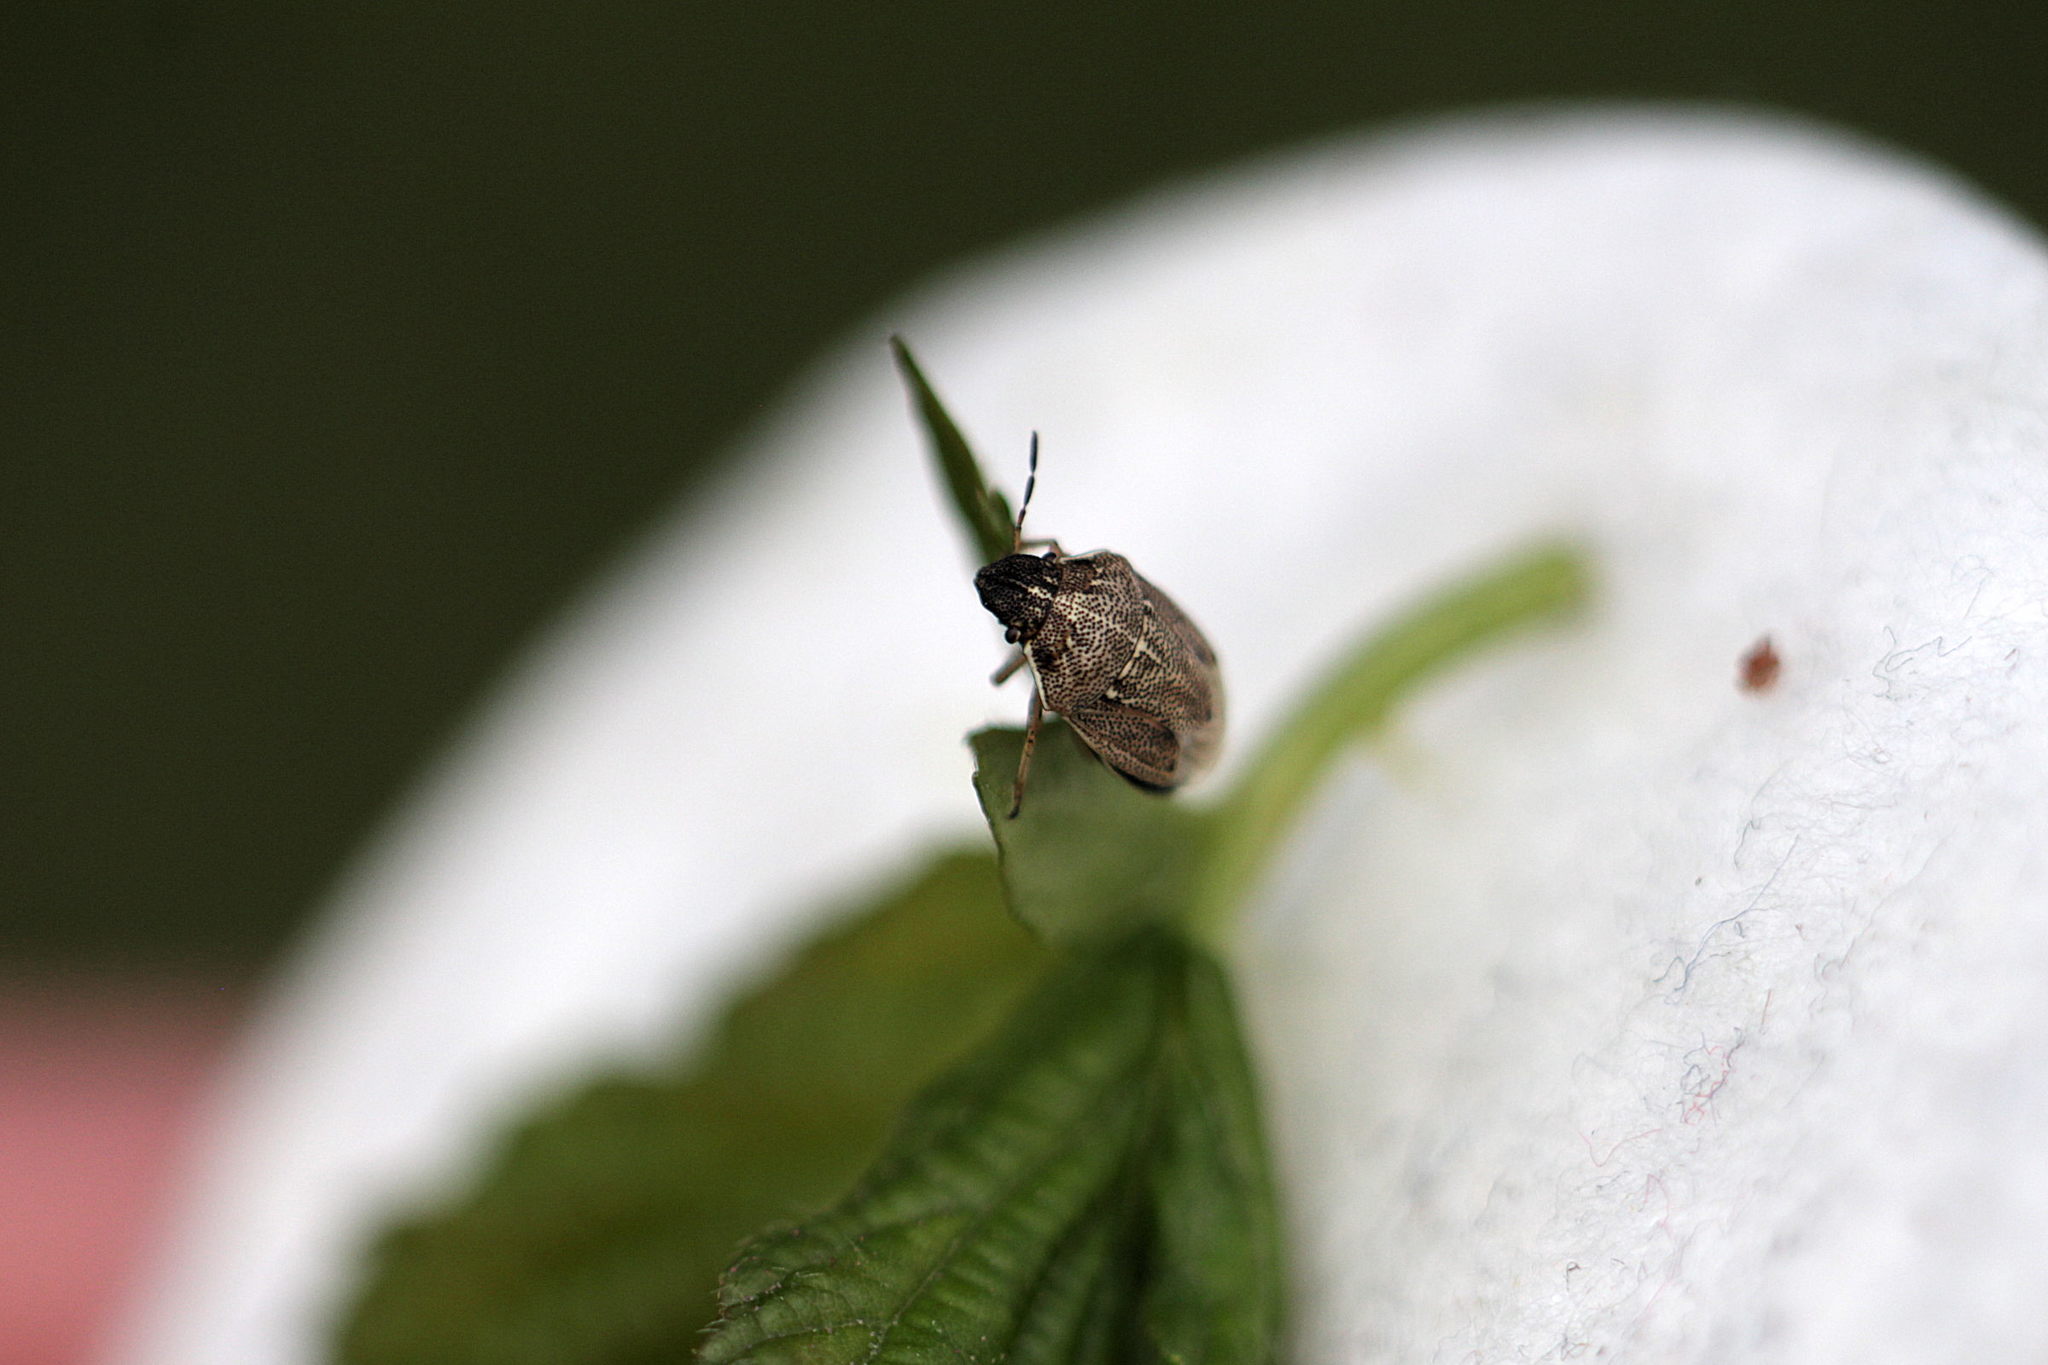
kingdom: Animalia
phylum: Arthropoda
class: Insecta
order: Hemiptera
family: Pentatomidae
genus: Neottiglossa
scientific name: Neottiglossa pusilla
